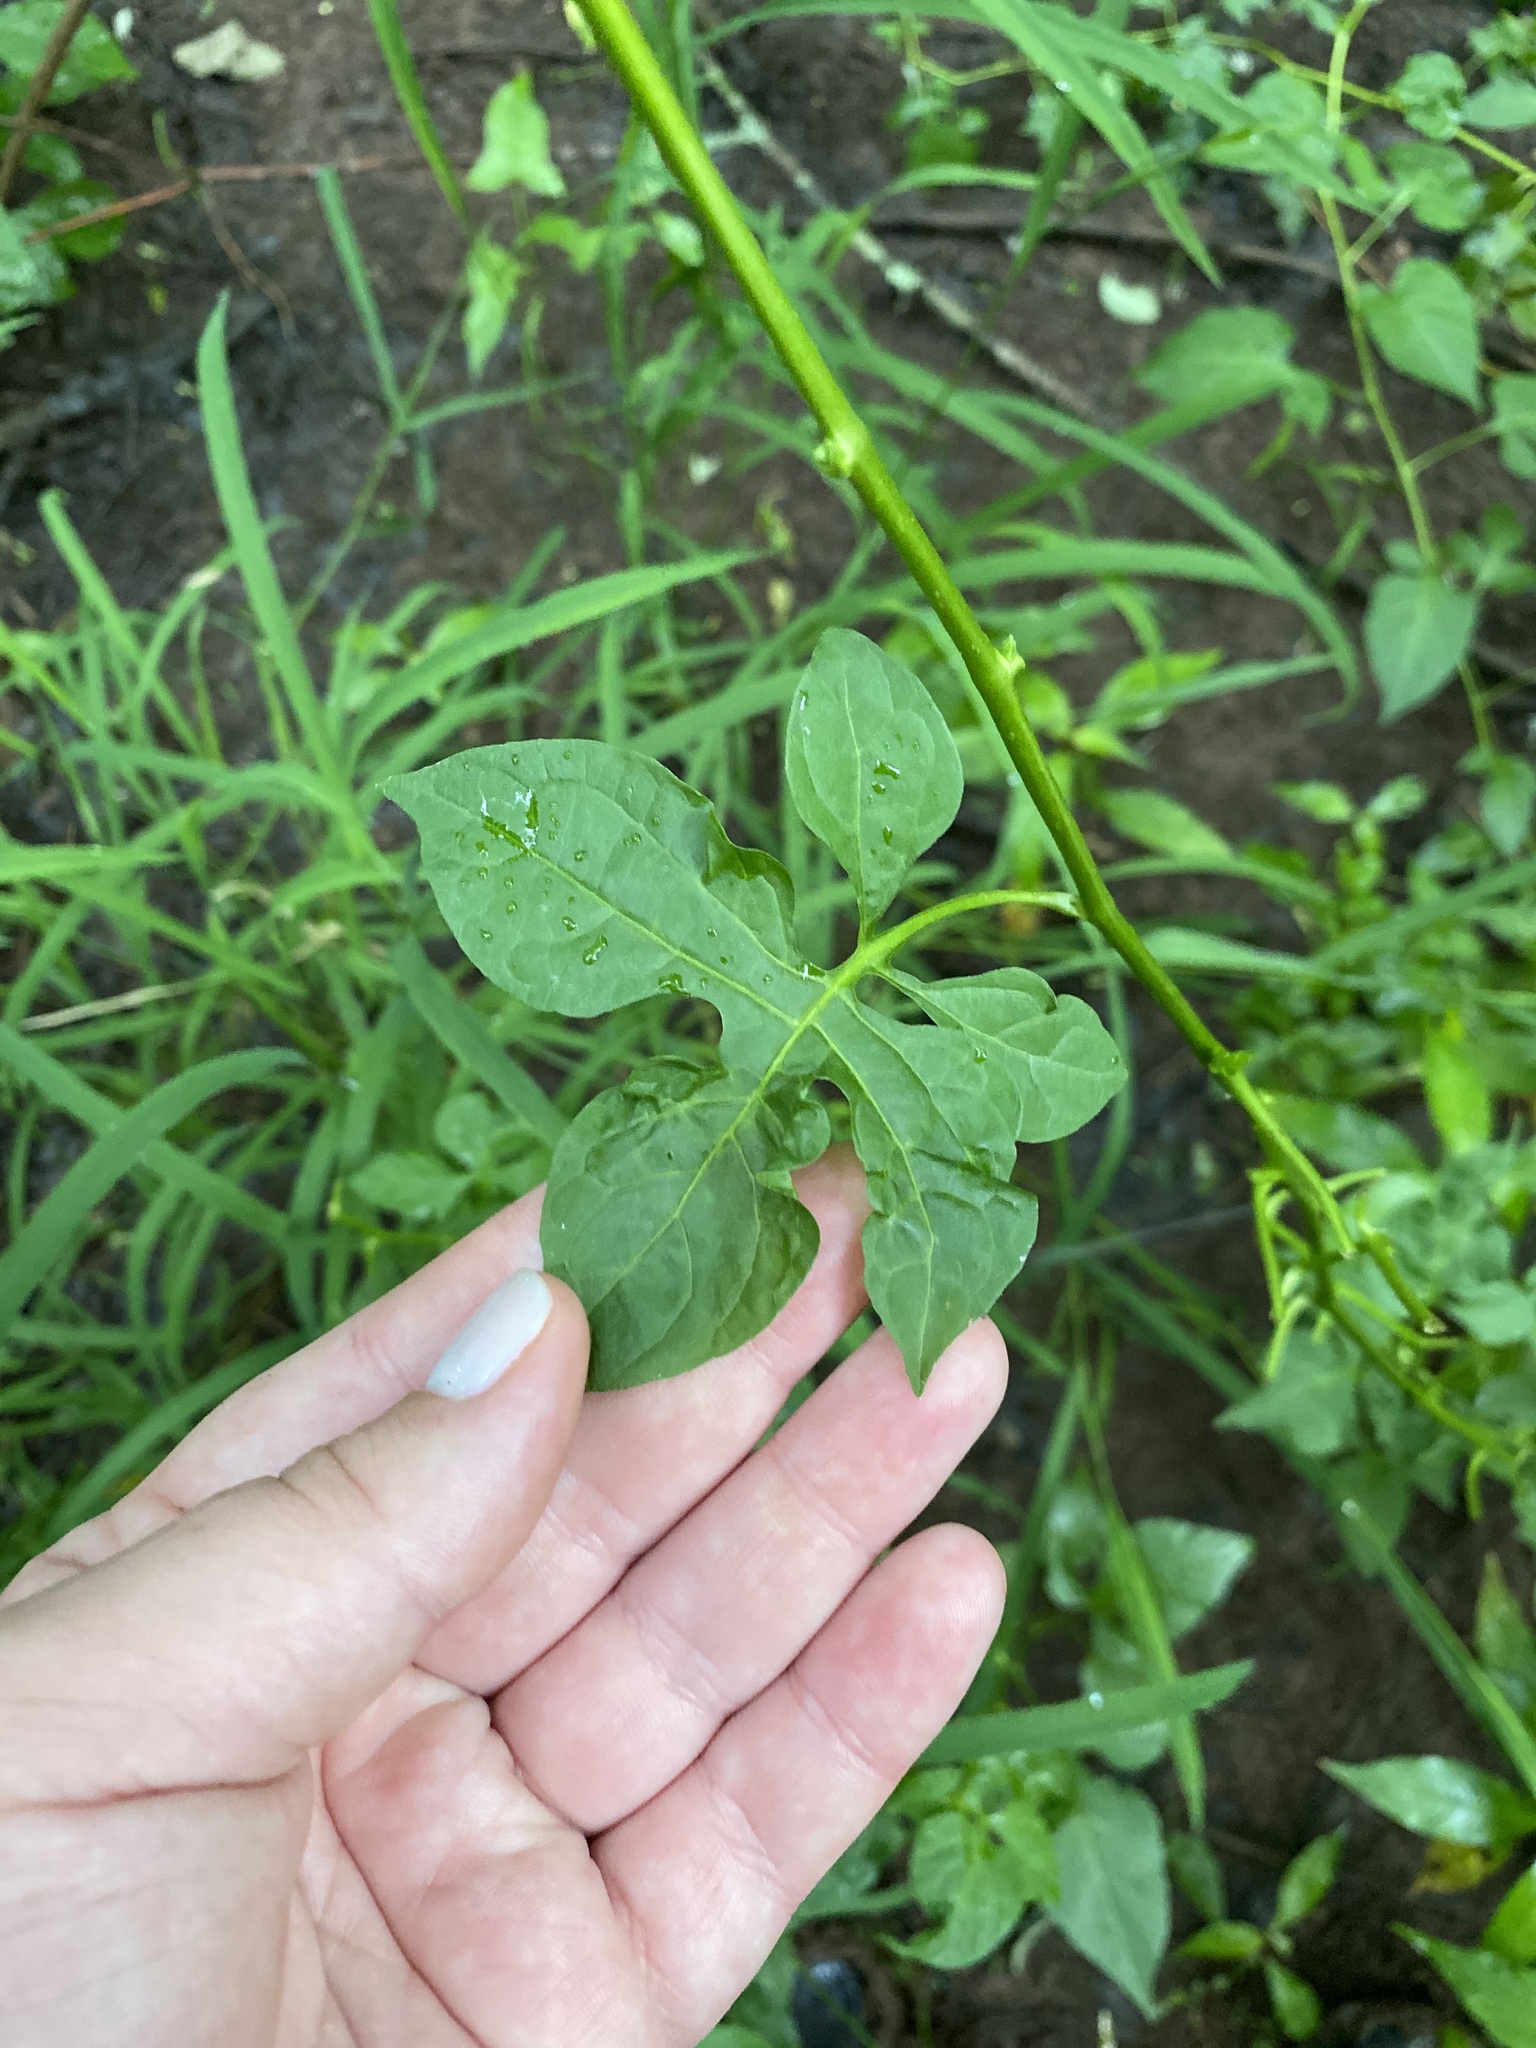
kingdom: Plantae
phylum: Tracheophyta
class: Magnoliopsida
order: Solanales
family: Solanaceae
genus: Solanum
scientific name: Solanum dulcamara
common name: Climbing nightshade
